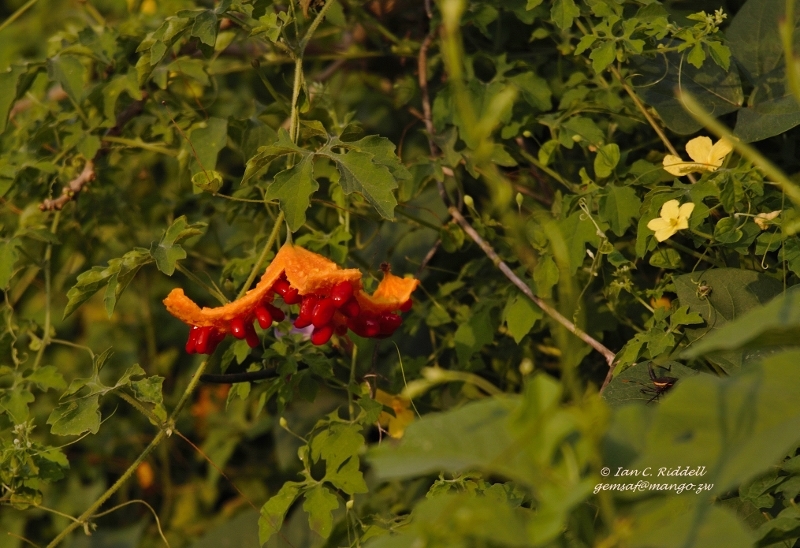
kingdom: Plantae
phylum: Tracheophyta
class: Magnoliopsida
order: Cucurbitales
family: Cucurbitaceae
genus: Momordica
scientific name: Momordica charantia
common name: Balsampear
